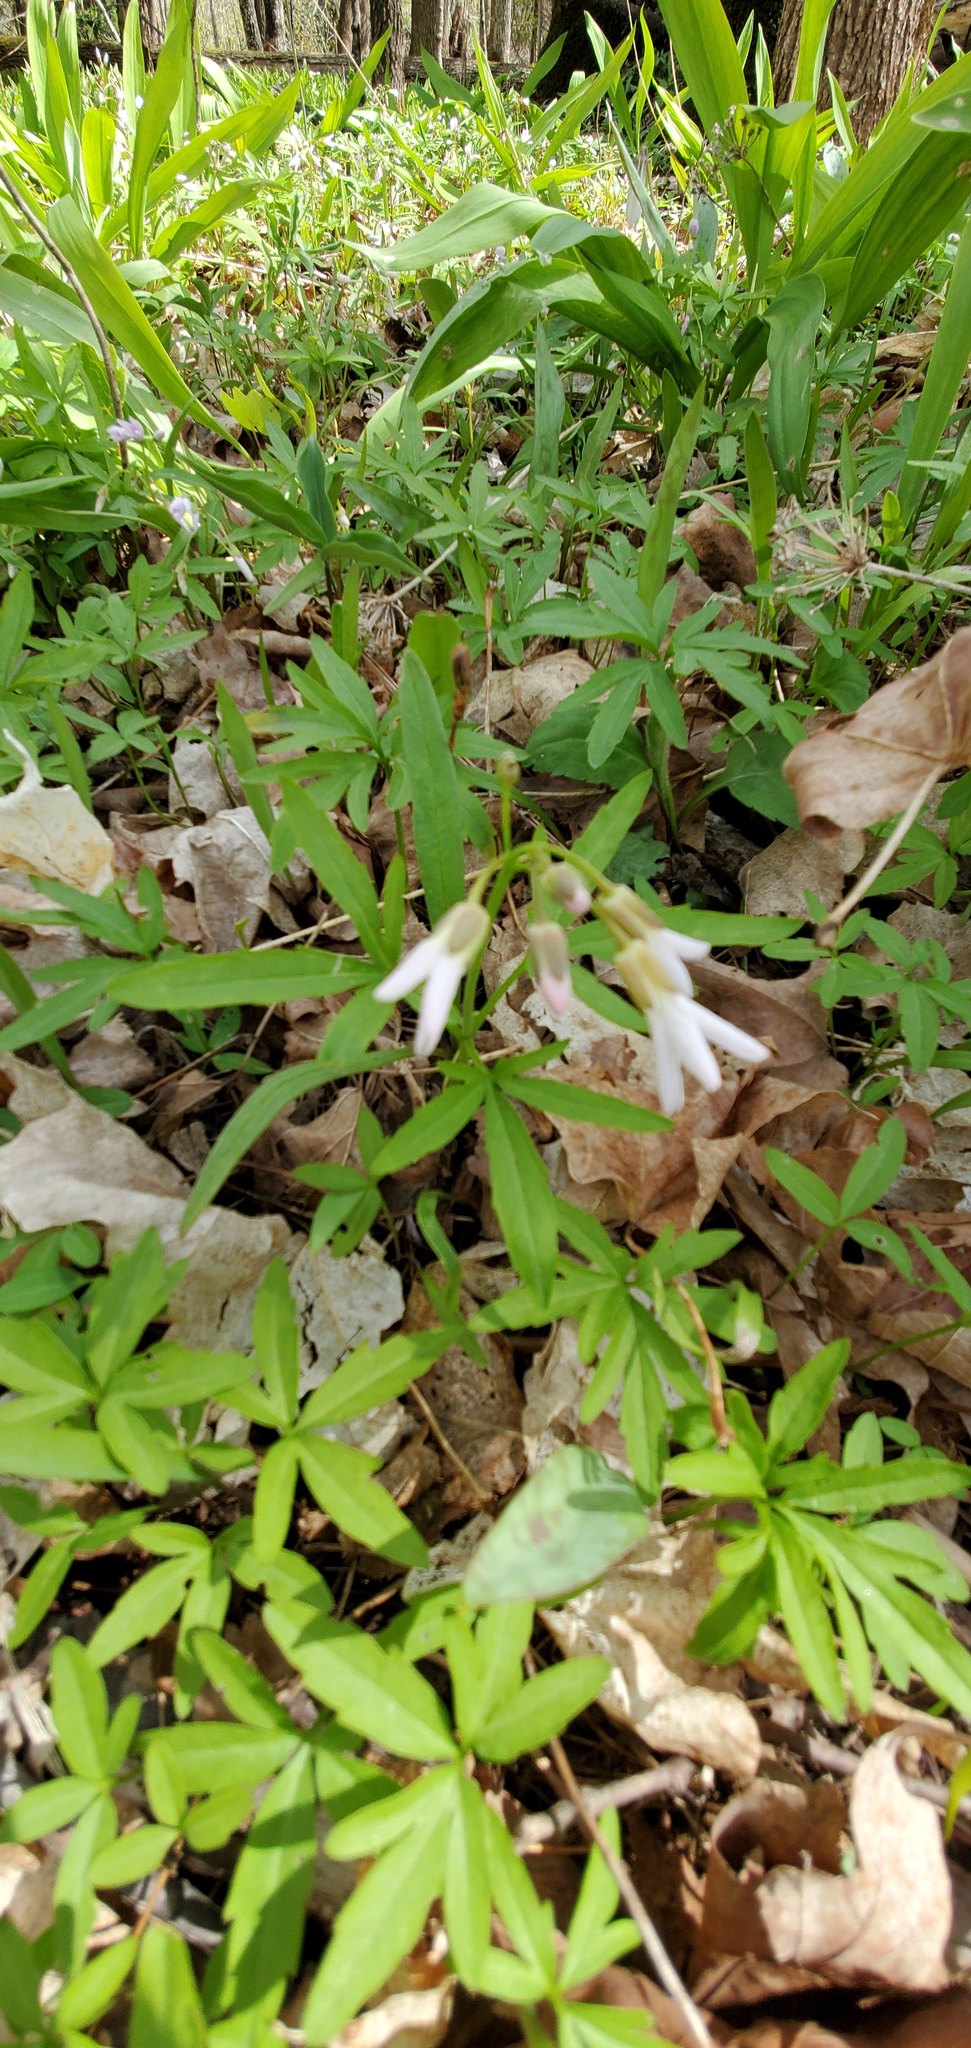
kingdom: Plantae
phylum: Tracheophyta
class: Magnoliopsida
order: Brassicales
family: Brassicaceae
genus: Cardamine
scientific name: Cardamine concatenata
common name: Cut-leaf toothcup
